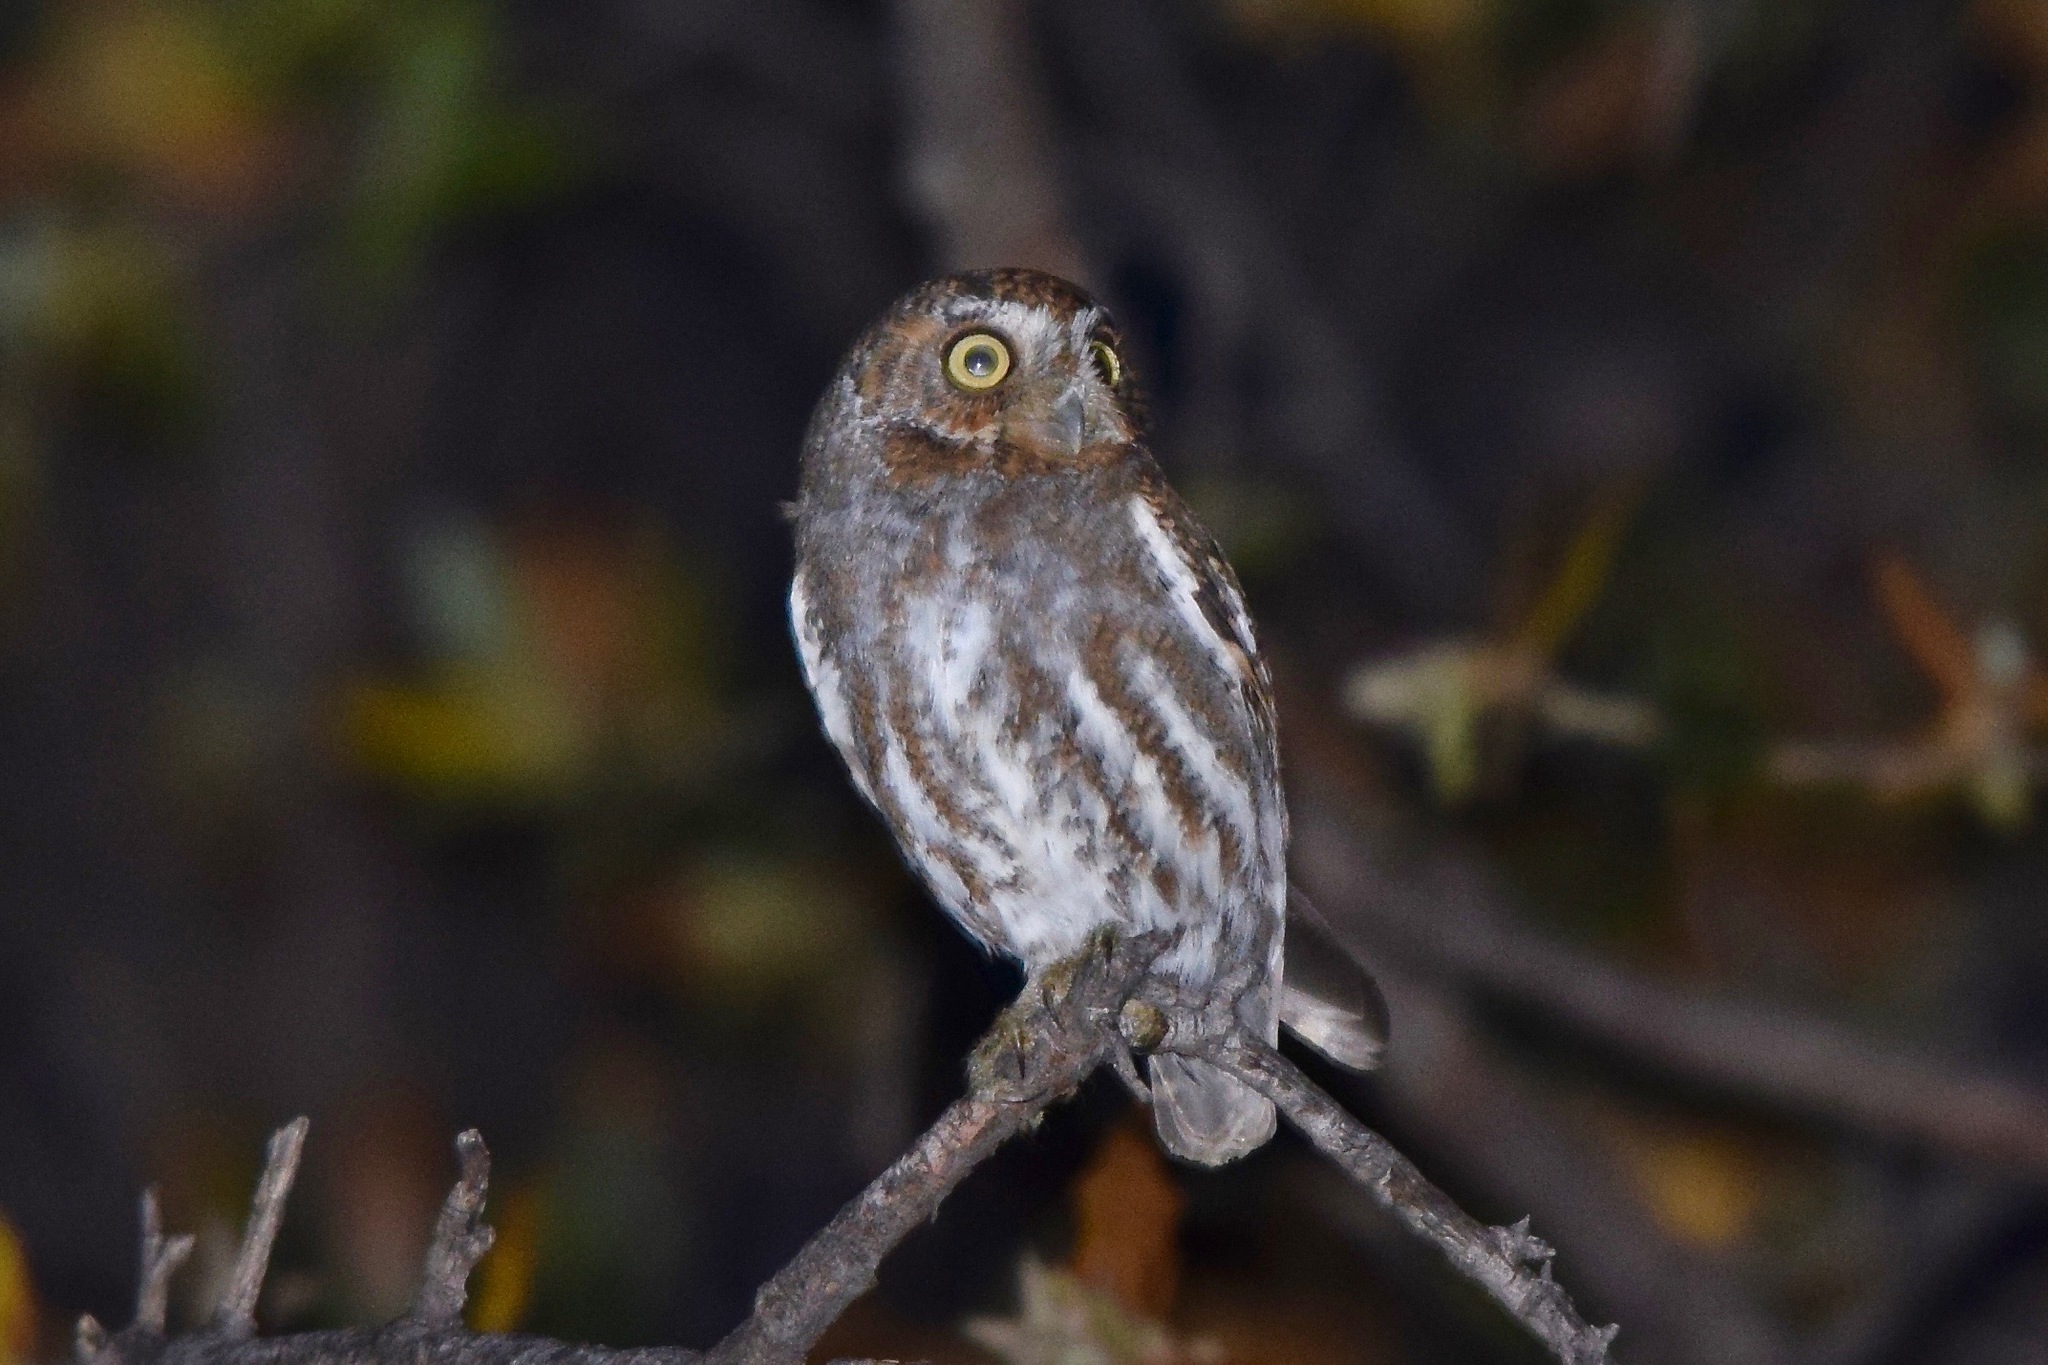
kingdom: Animalia
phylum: Chordata
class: Aves
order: Strigiformes
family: Strigidae
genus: Micrathene
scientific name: Micrathene whitneyi
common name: Elf owl
